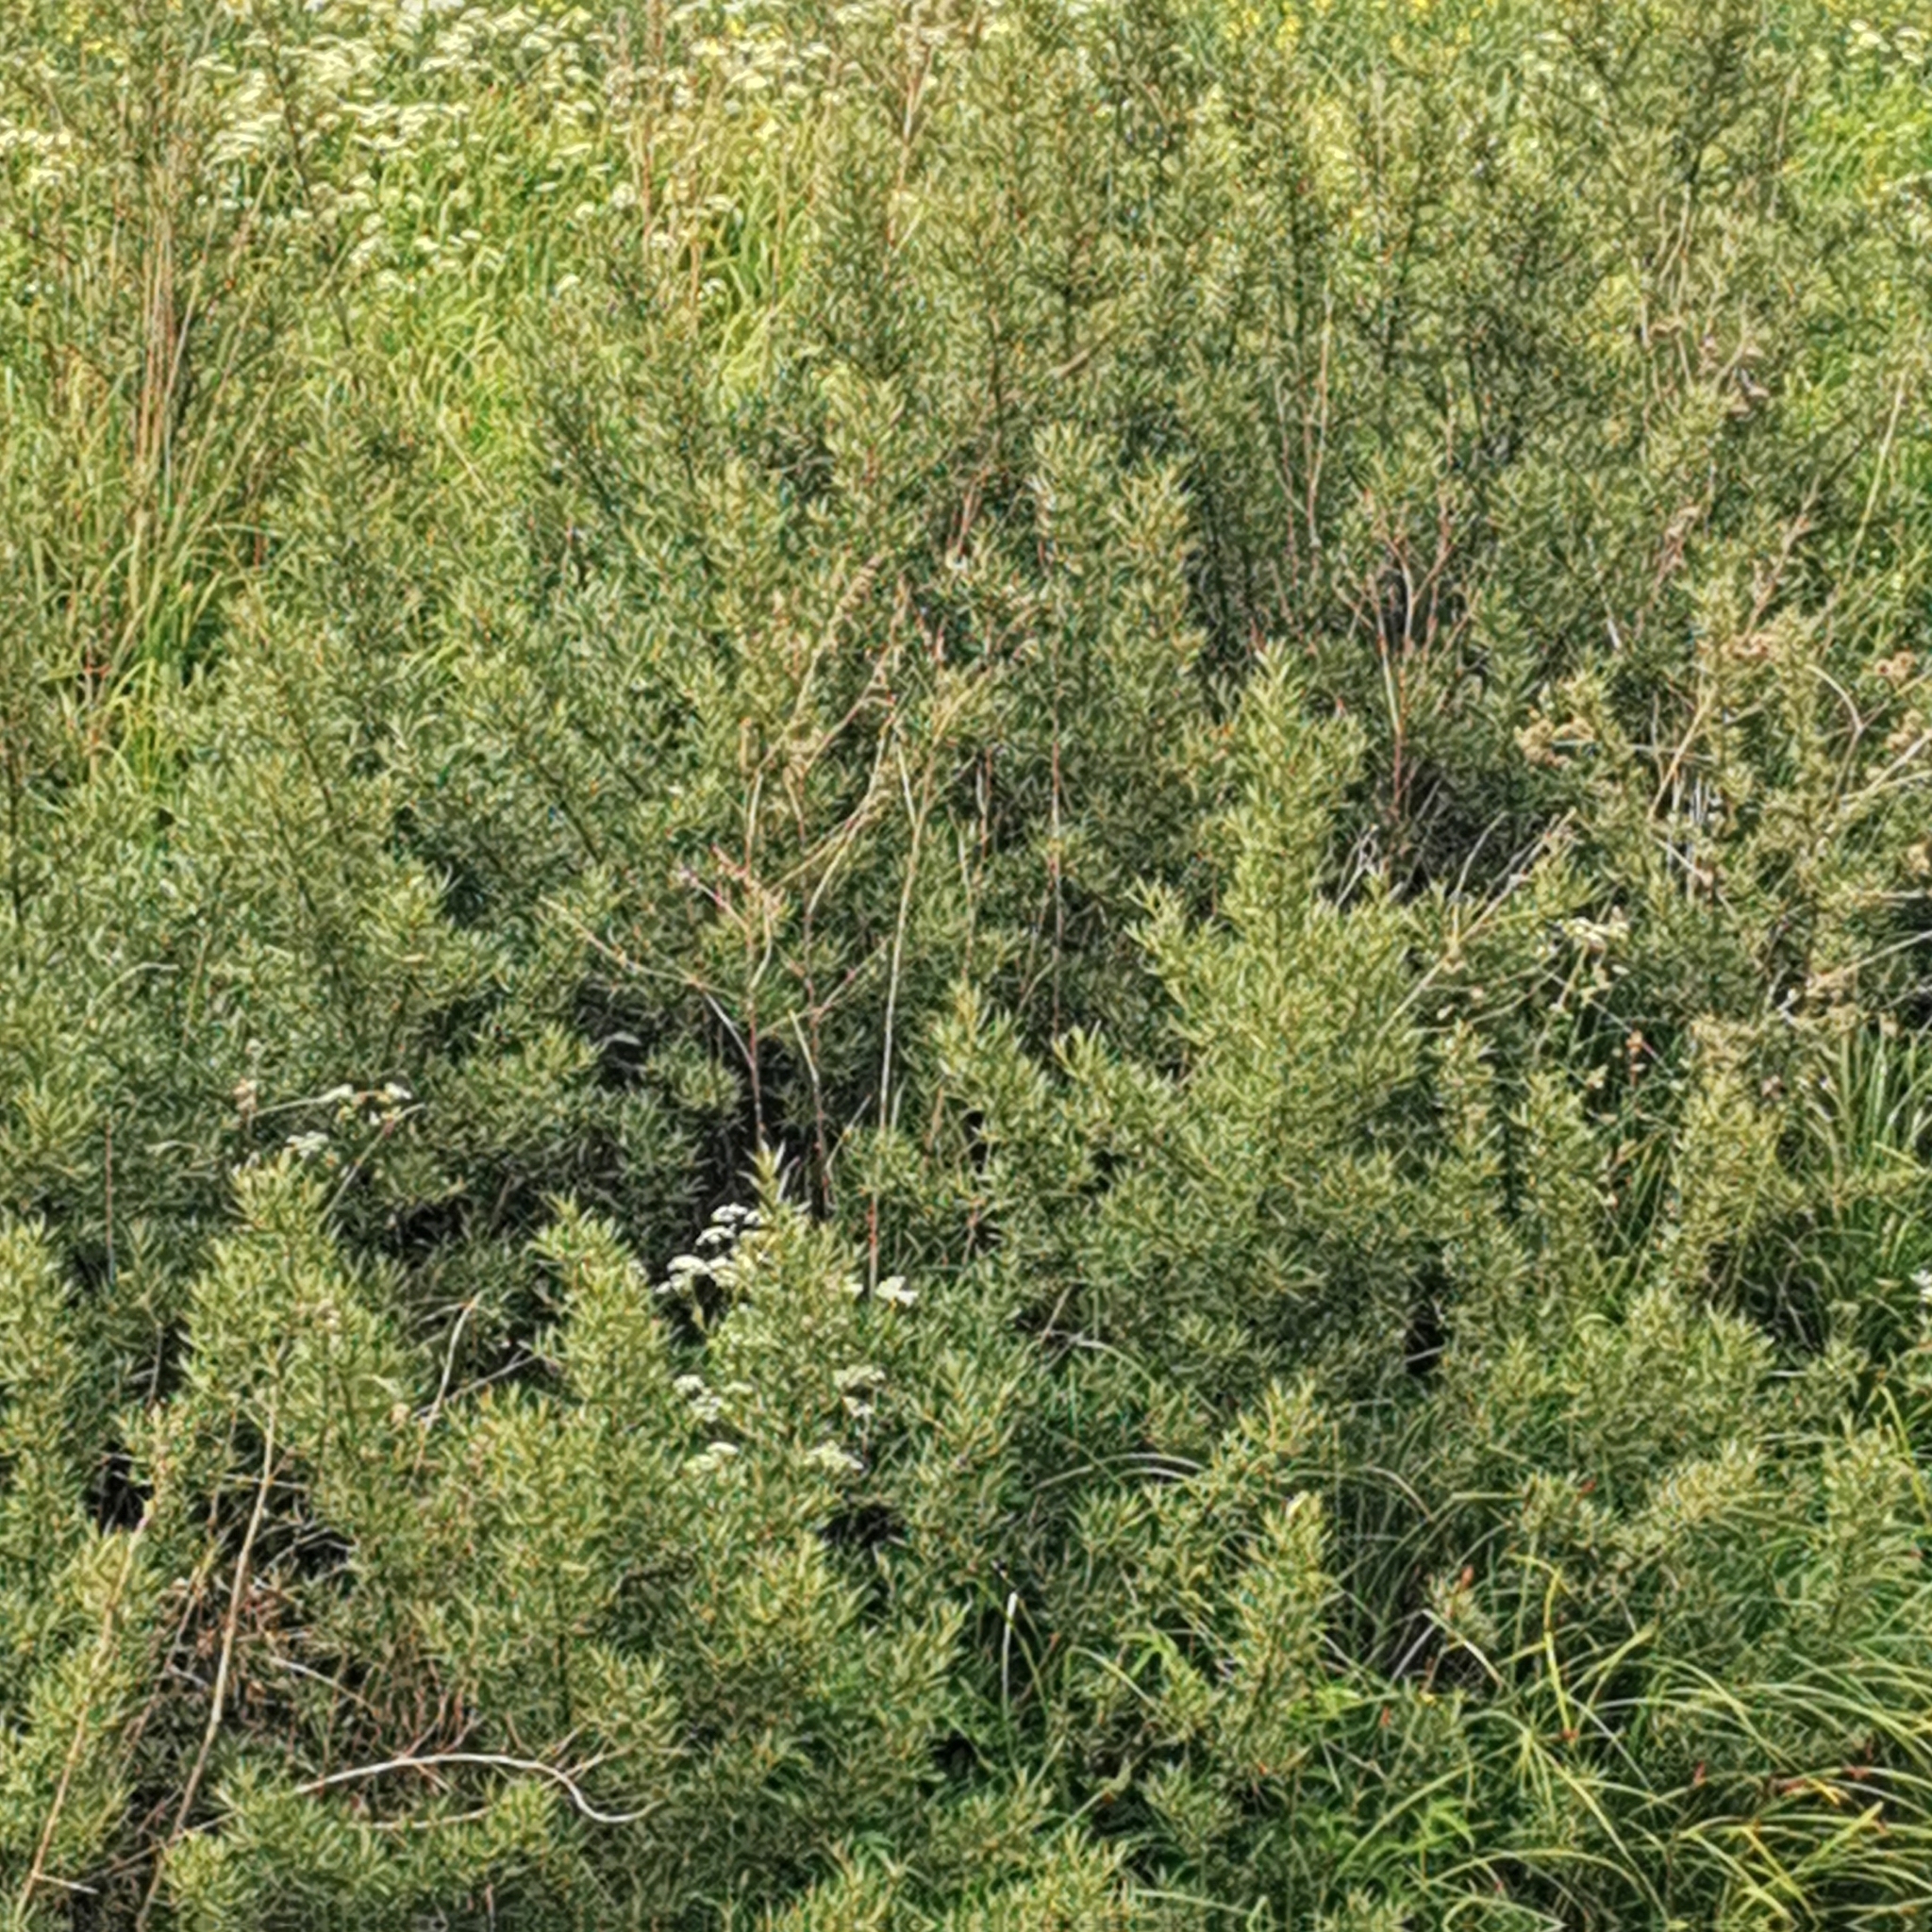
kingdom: Plantae
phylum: Tracheophyta
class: Magnoliopsida
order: Rosales
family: Elaeagnaceae
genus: Hippophae
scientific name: Hippophae rhamnoides
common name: Sea-buckthorn
